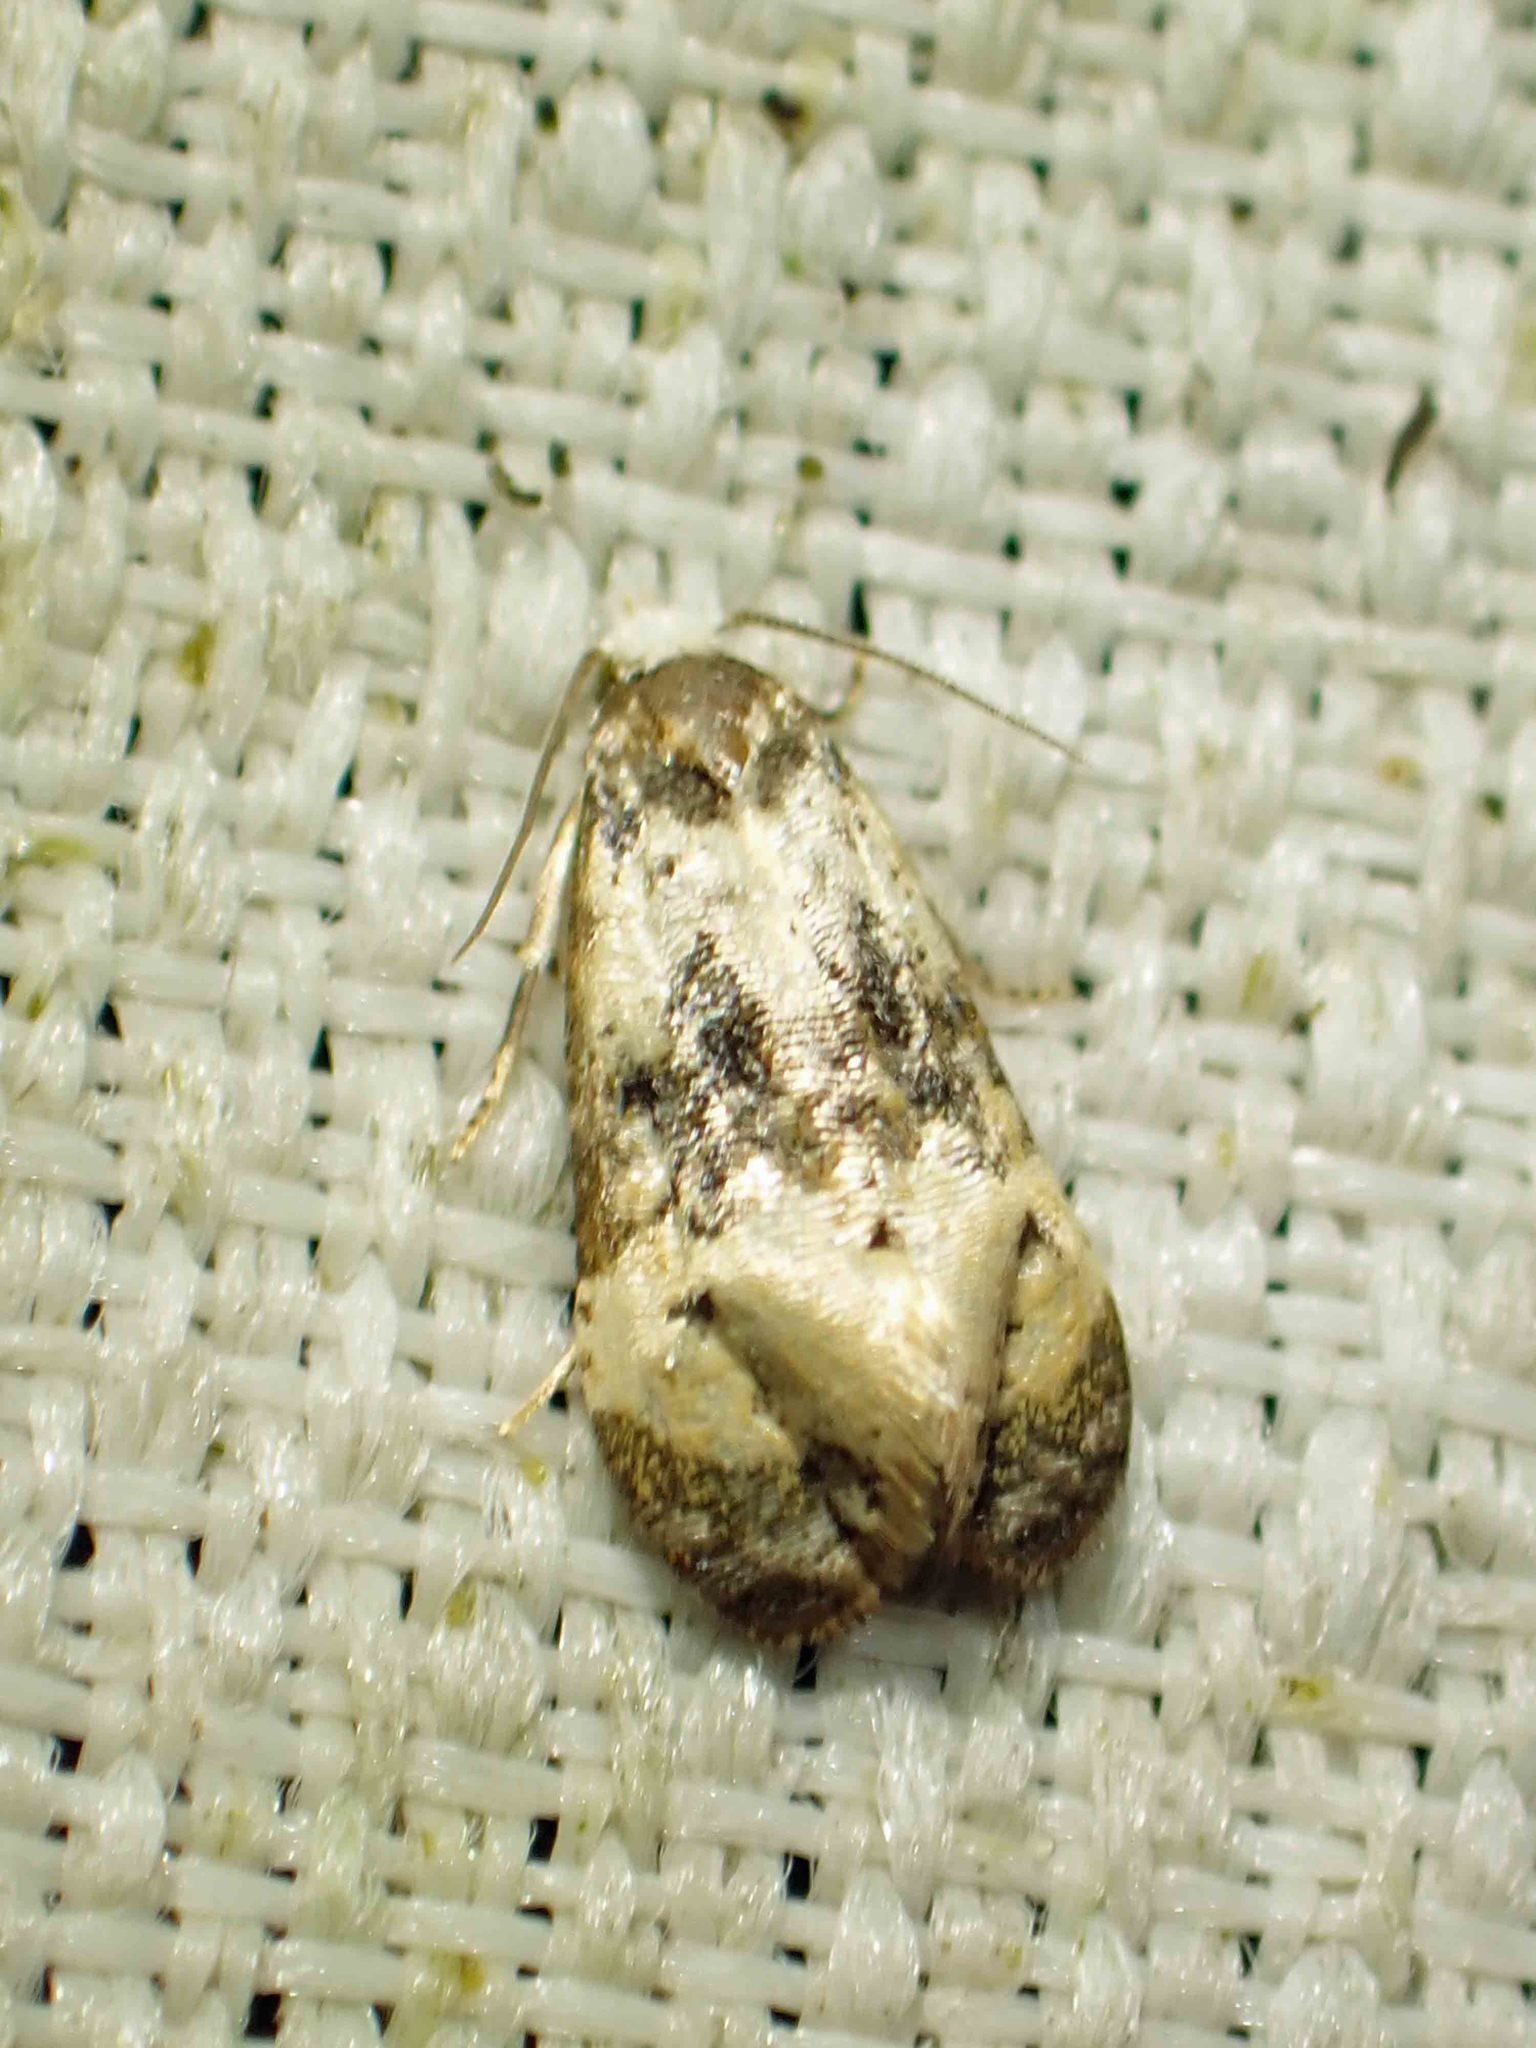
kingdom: Animalia
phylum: Arthropoda
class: Insecta
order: Lepidoptera
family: Tortricidae
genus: Phalonidia
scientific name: Phalonidia memoranda
